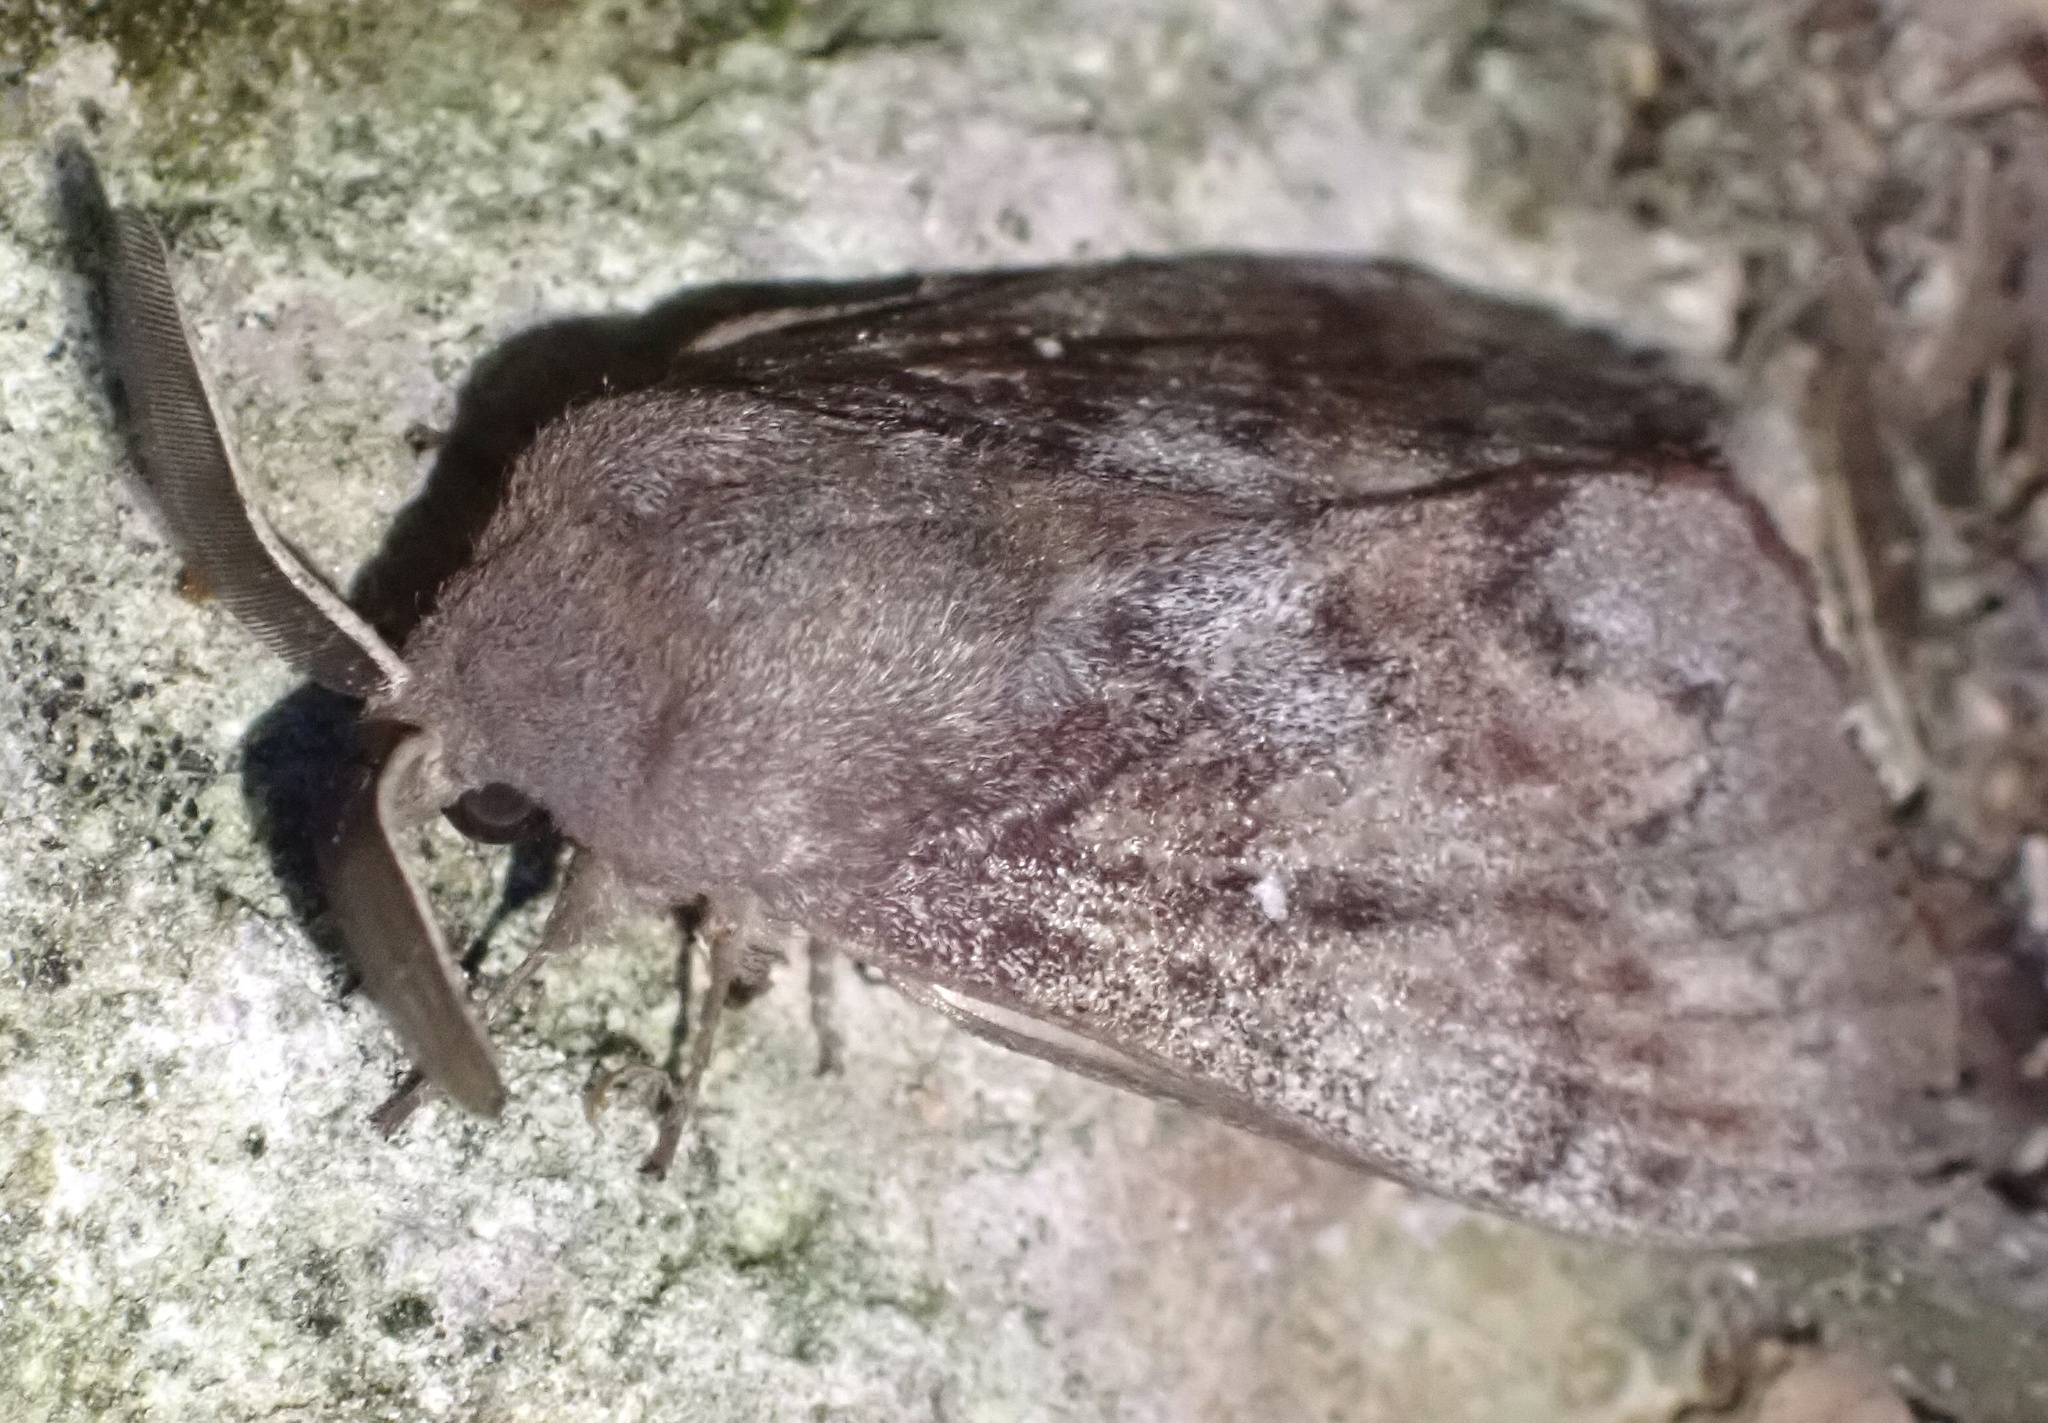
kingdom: Animalia
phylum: Arthropoda
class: Insecta
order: Lepidoptera
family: Lasiocampidae
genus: Dendrolimus
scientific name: Dendrolimus pini
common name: Pine-tree lappet
